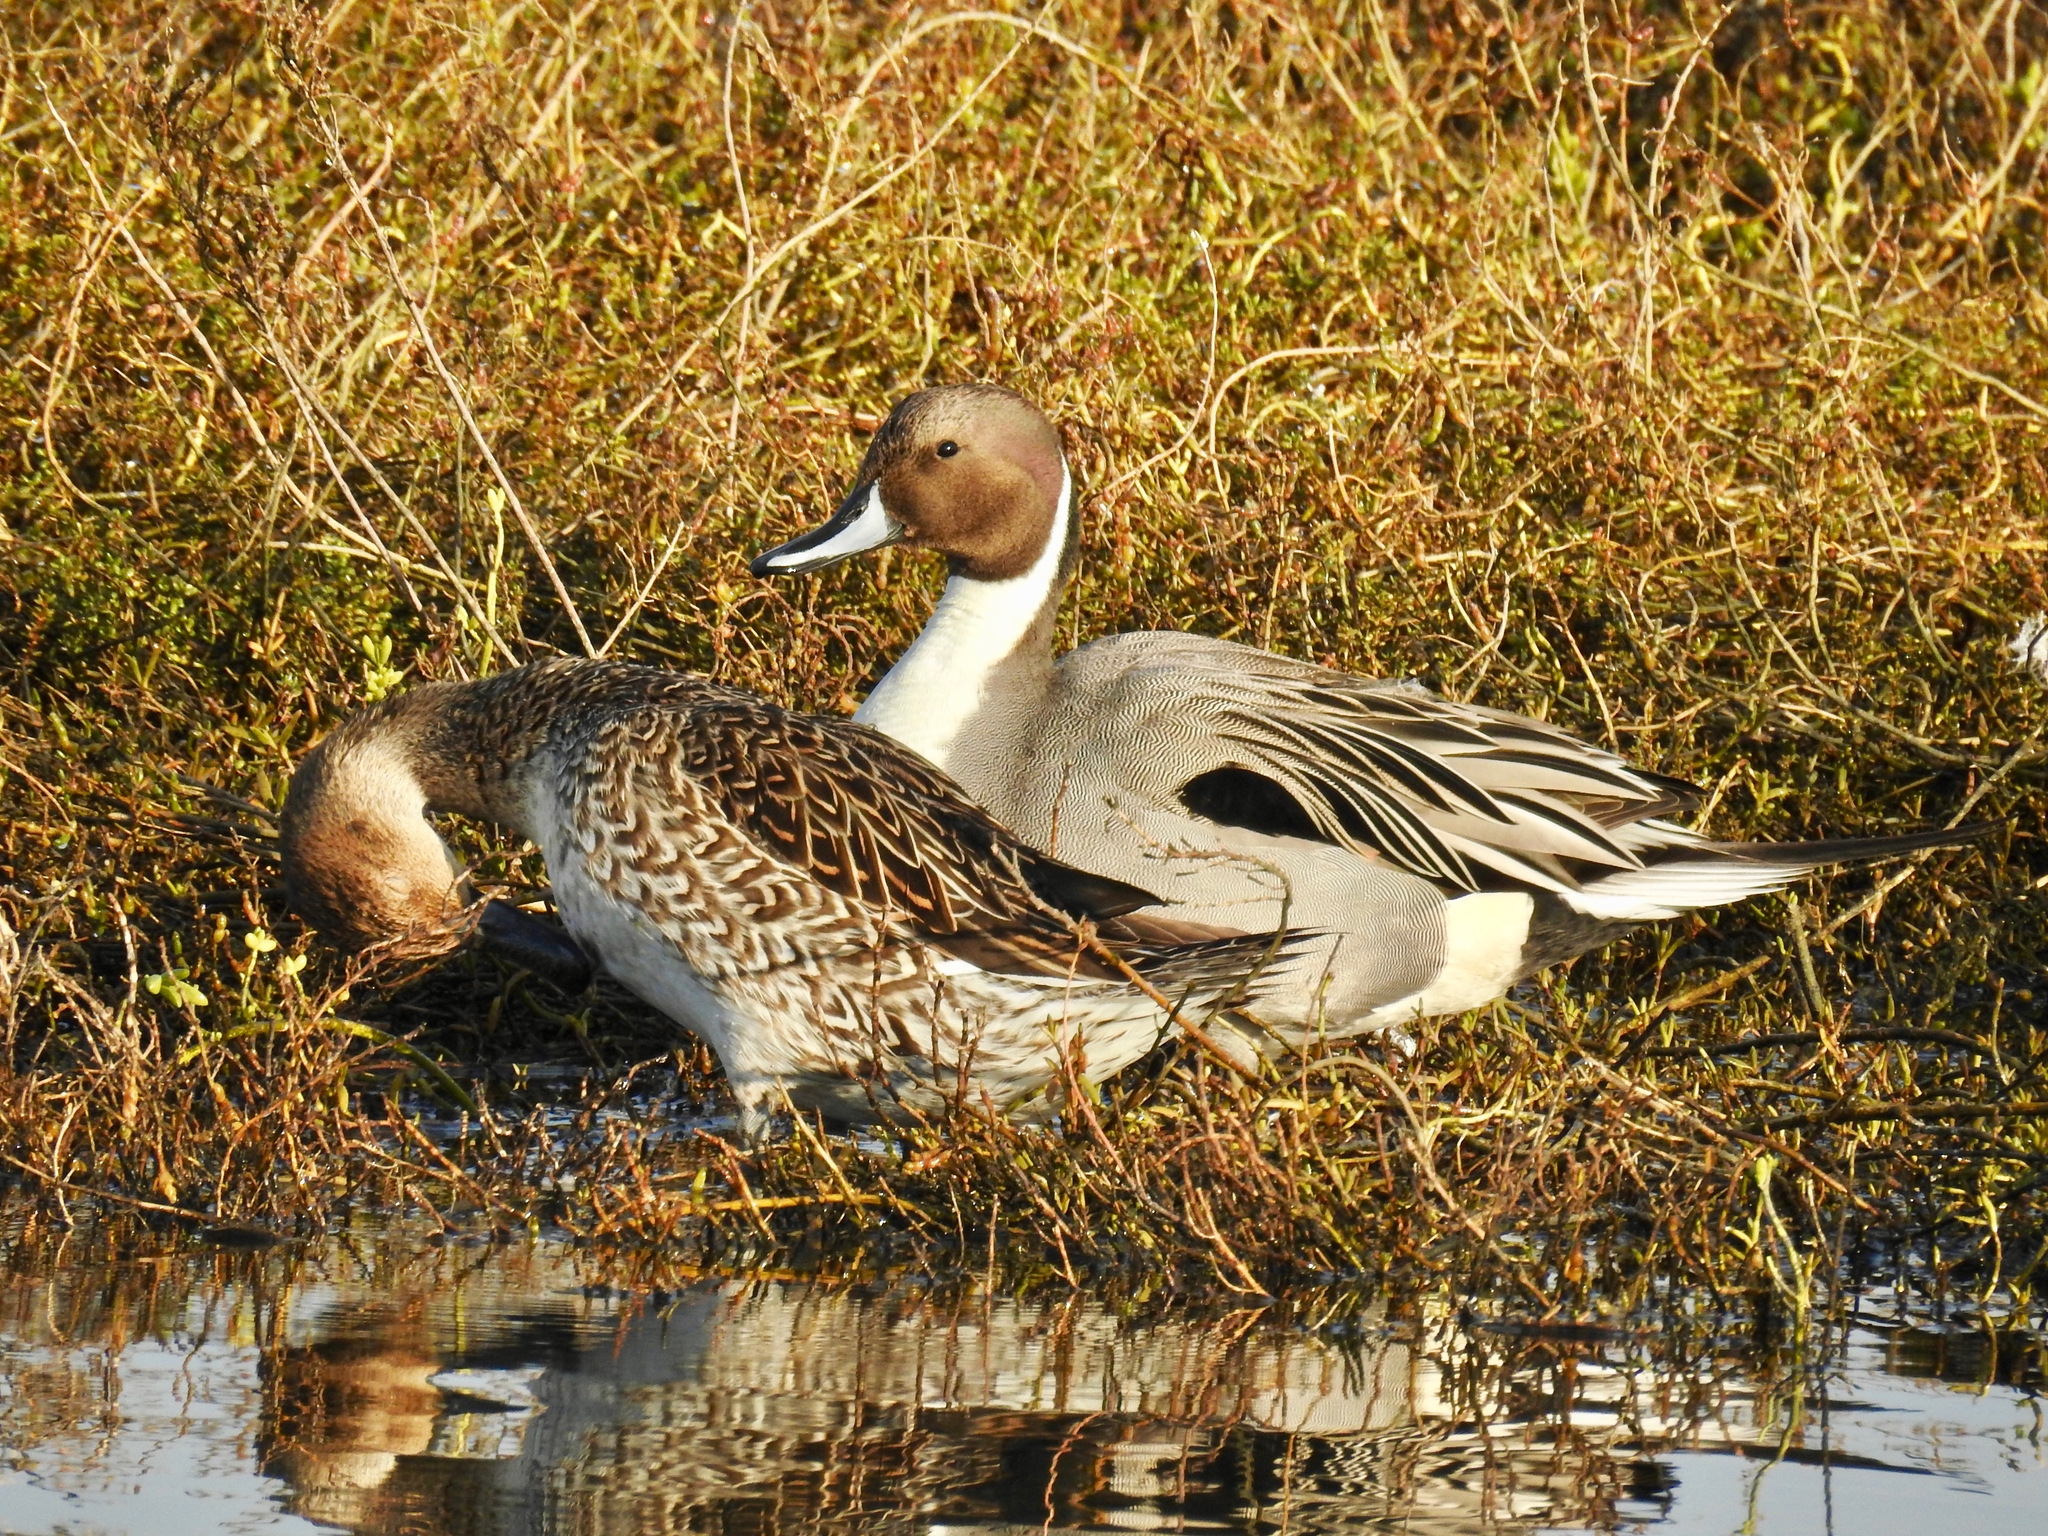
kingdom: Animalia
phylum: Chordata
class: Aves
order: Anseriformes
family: Anatidae
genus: Anas
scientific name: Anas acuta
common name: Northern pintail
